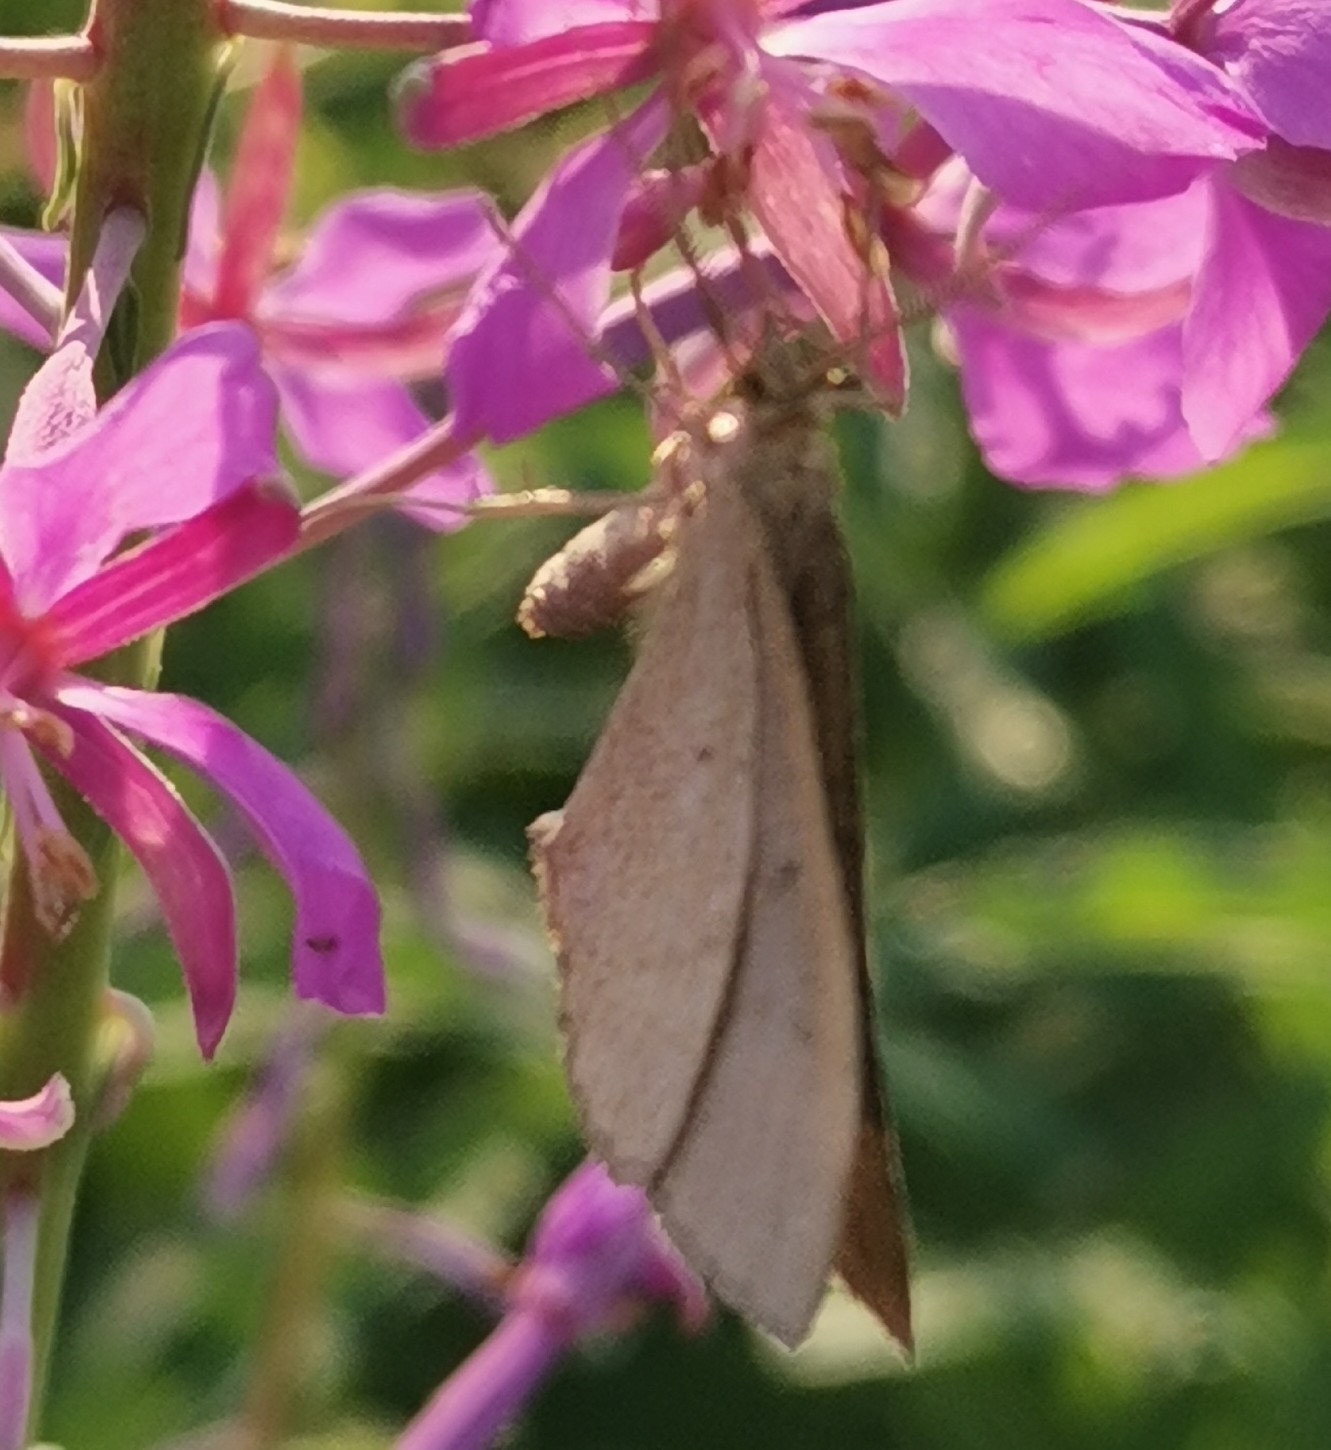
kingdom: Animalia
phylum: Arthropoda
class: Insecta
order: Lepidoptera
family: Geometridae
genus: Scotopteryx
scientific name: Scotopteryx chenopodiata
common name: Shaded broad-bar
